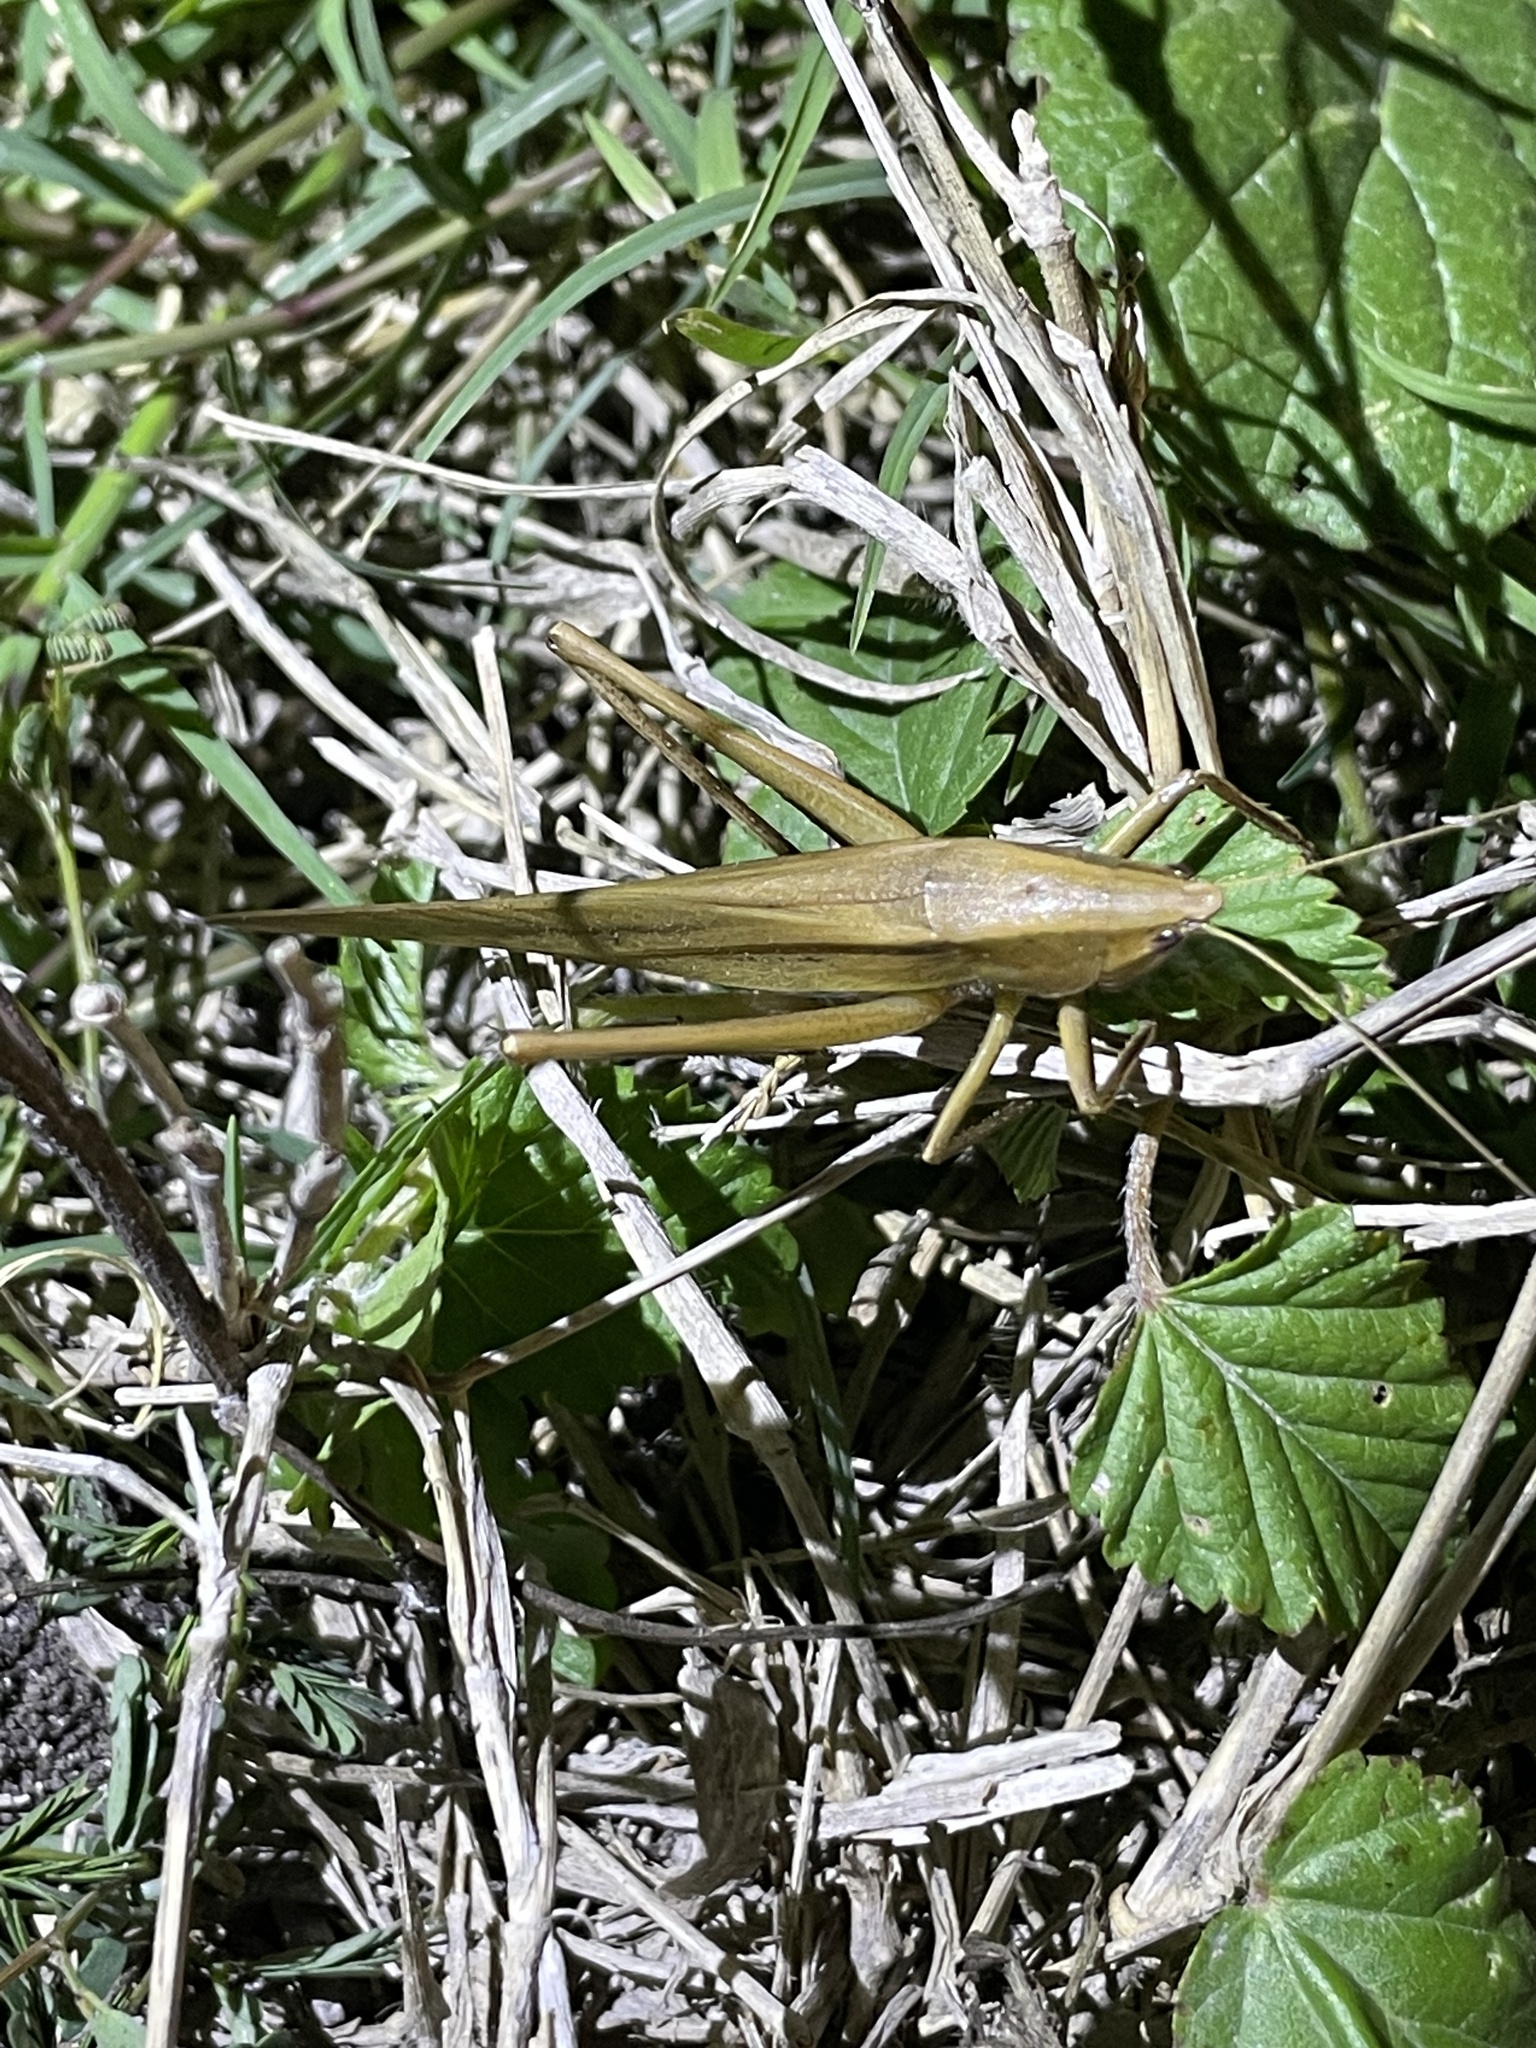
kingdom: Animalia
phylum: Arthropoda
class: Insecta
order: Orthoptera
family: Tettigoniidae
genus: Neoconocephalus
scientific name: Neoconocephalus triops
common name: Broad-tipped conehead
